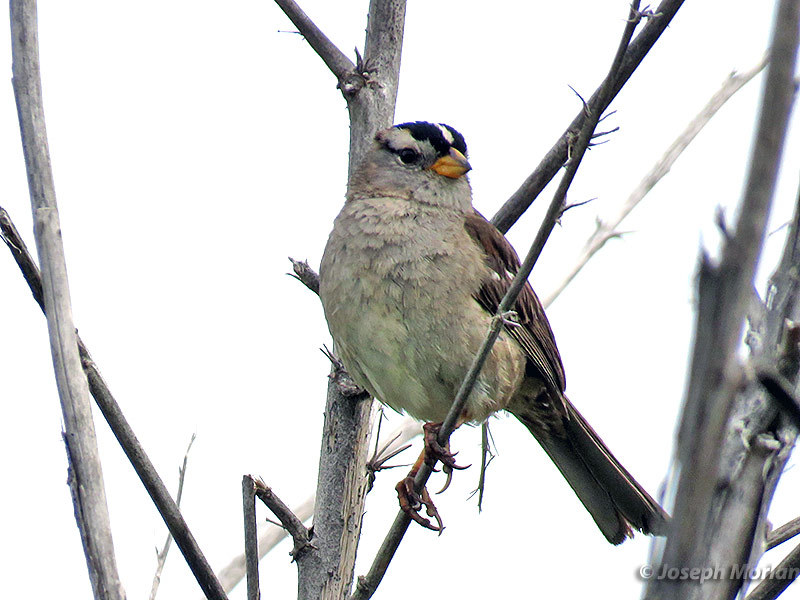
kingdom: Animalia
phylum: Chordata
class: Aves
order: Passeriformes
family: Passerellidae
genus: Zonotrichia
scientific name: Zonotrichia leucophrys
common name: White-crowned sparrow
